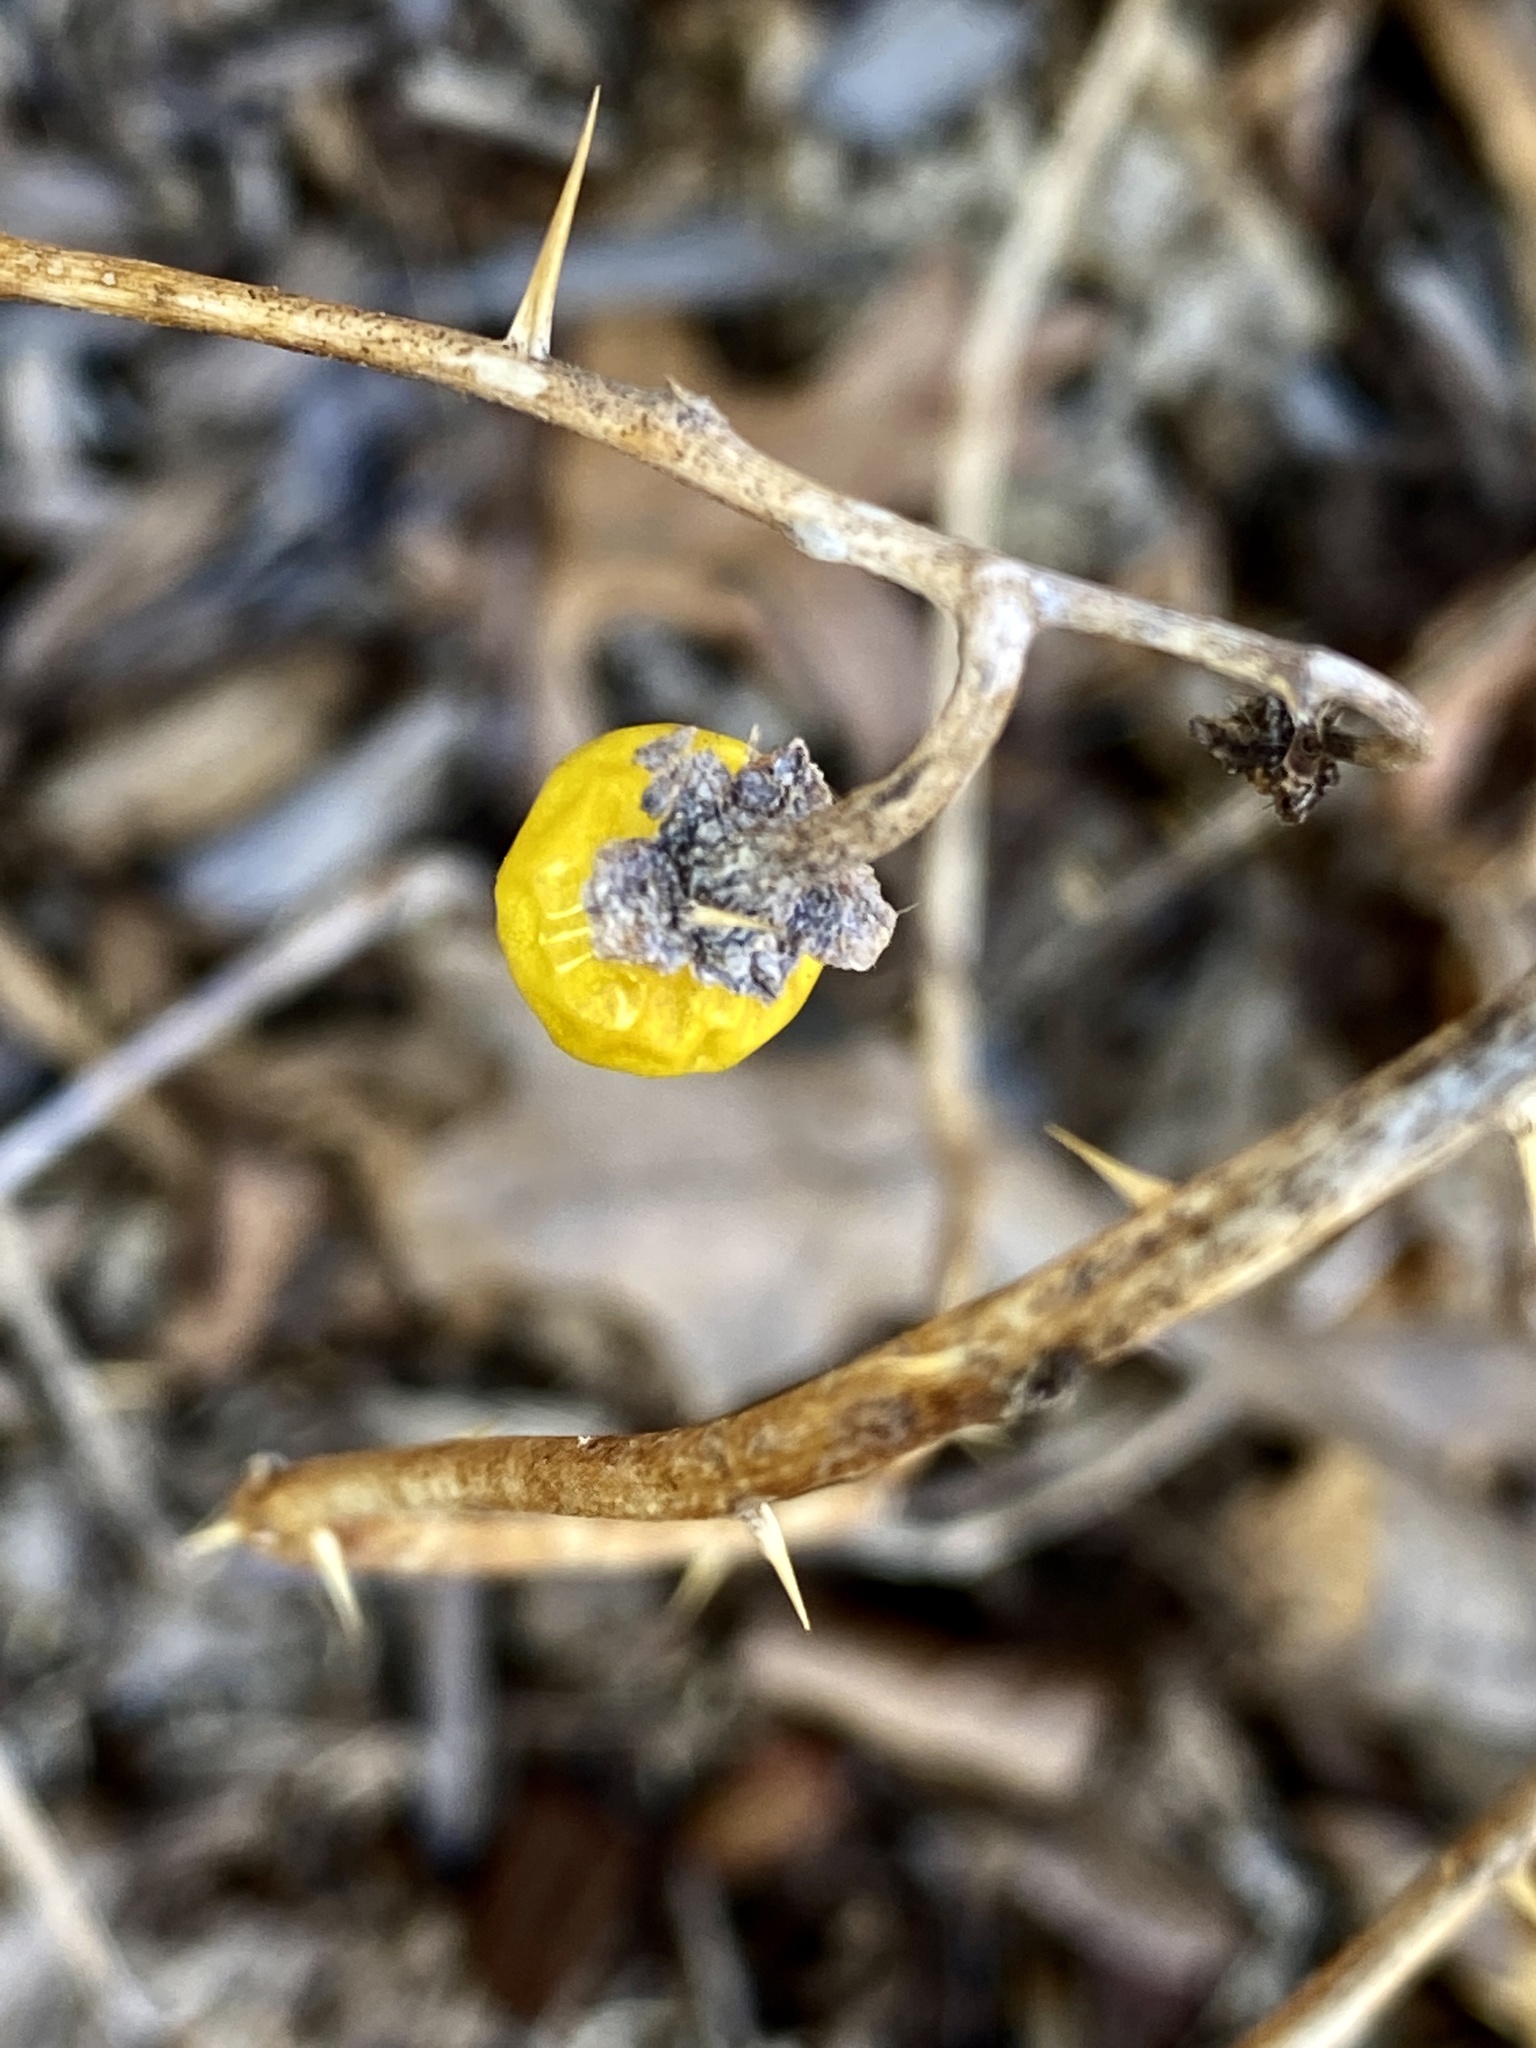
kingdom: Plantae
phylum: Tracheophyta
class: Magnoliopsida
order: Solanales
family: Solanaceae
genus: Solanum
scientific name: Solanum carolinense
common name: Horse-nettle
